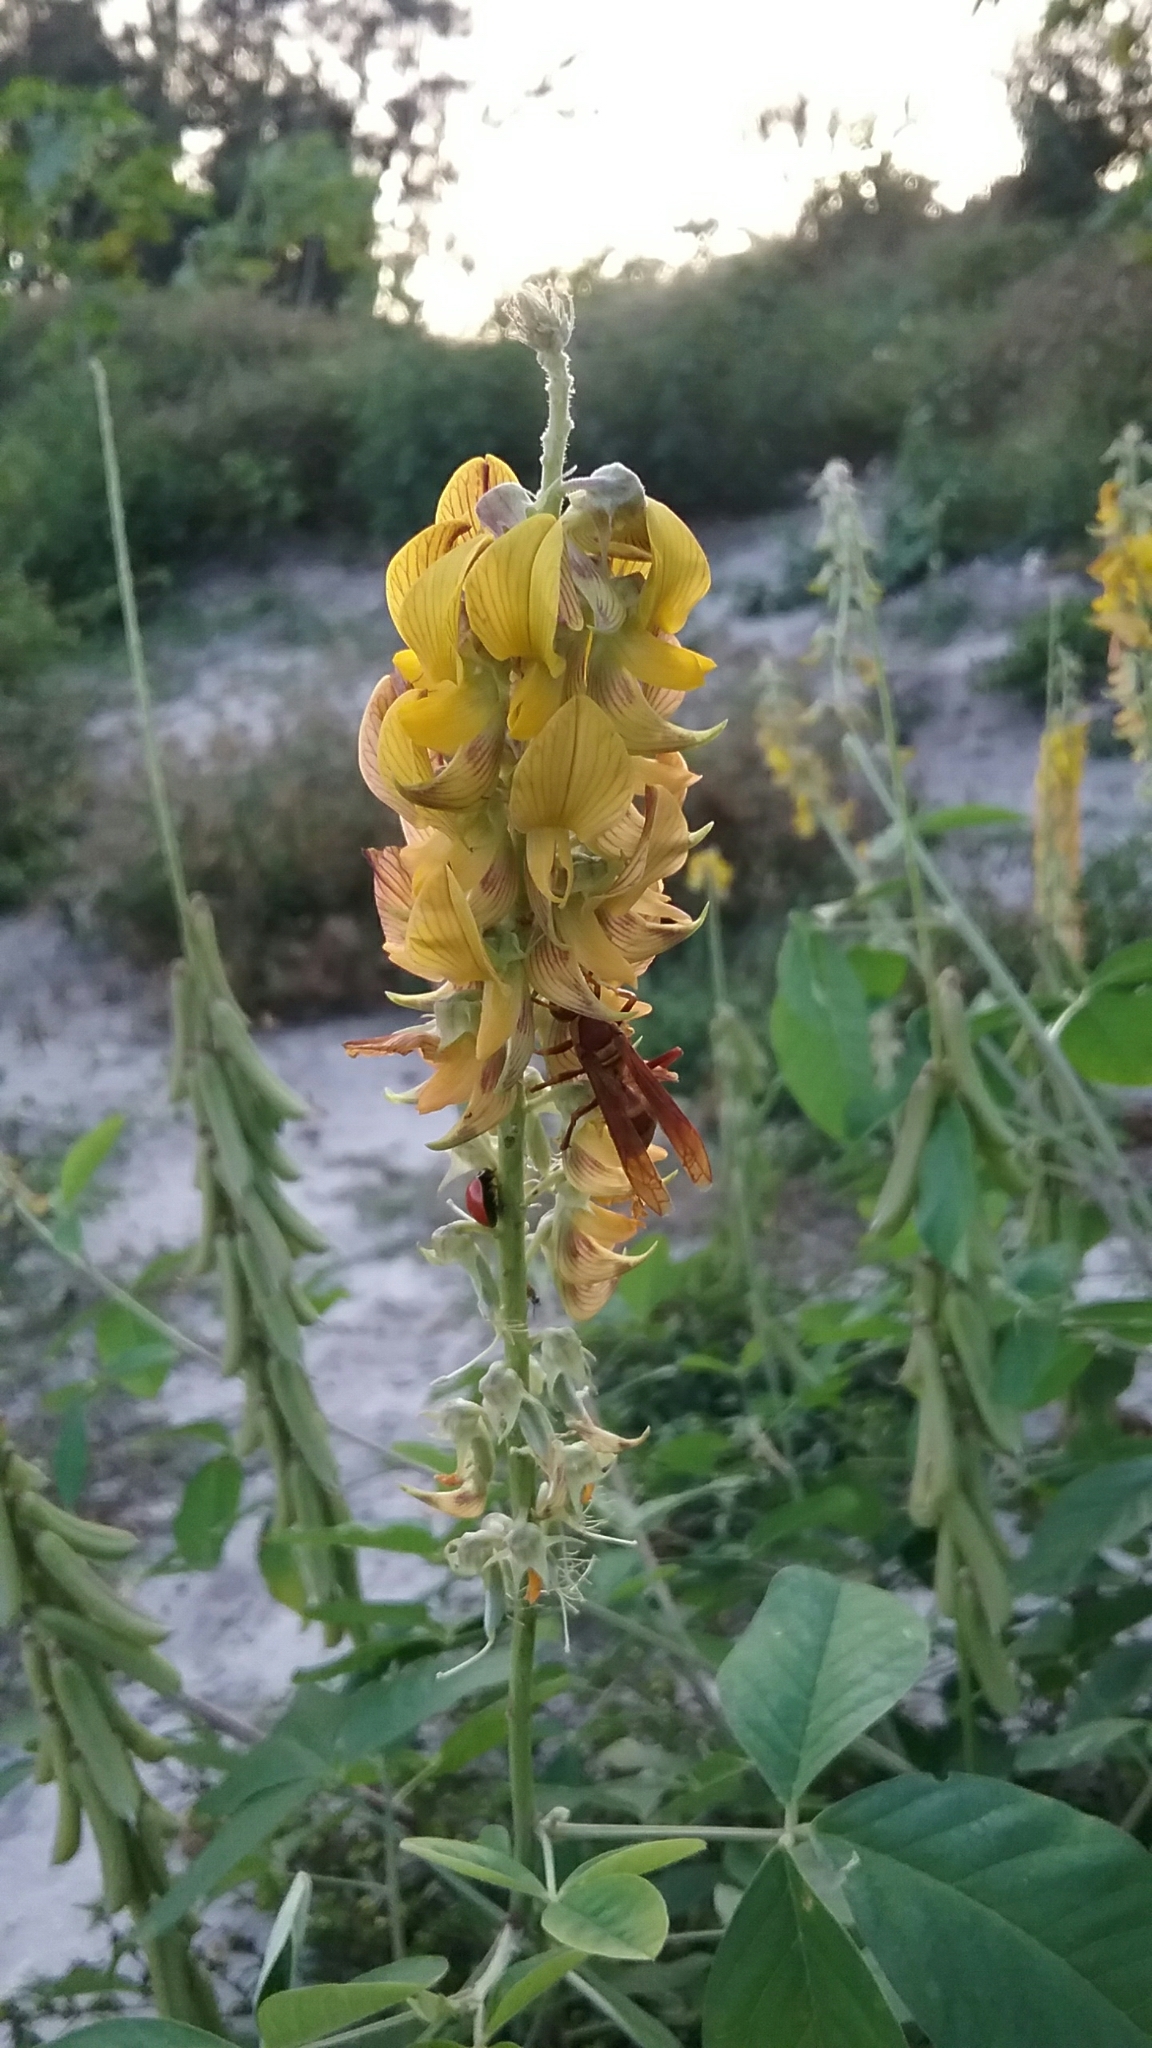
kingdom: Animalia
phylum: Arthropoda
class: Insecta
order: Hymenoptera
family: Eumenidae
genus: Polistes
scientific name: Polistes major
